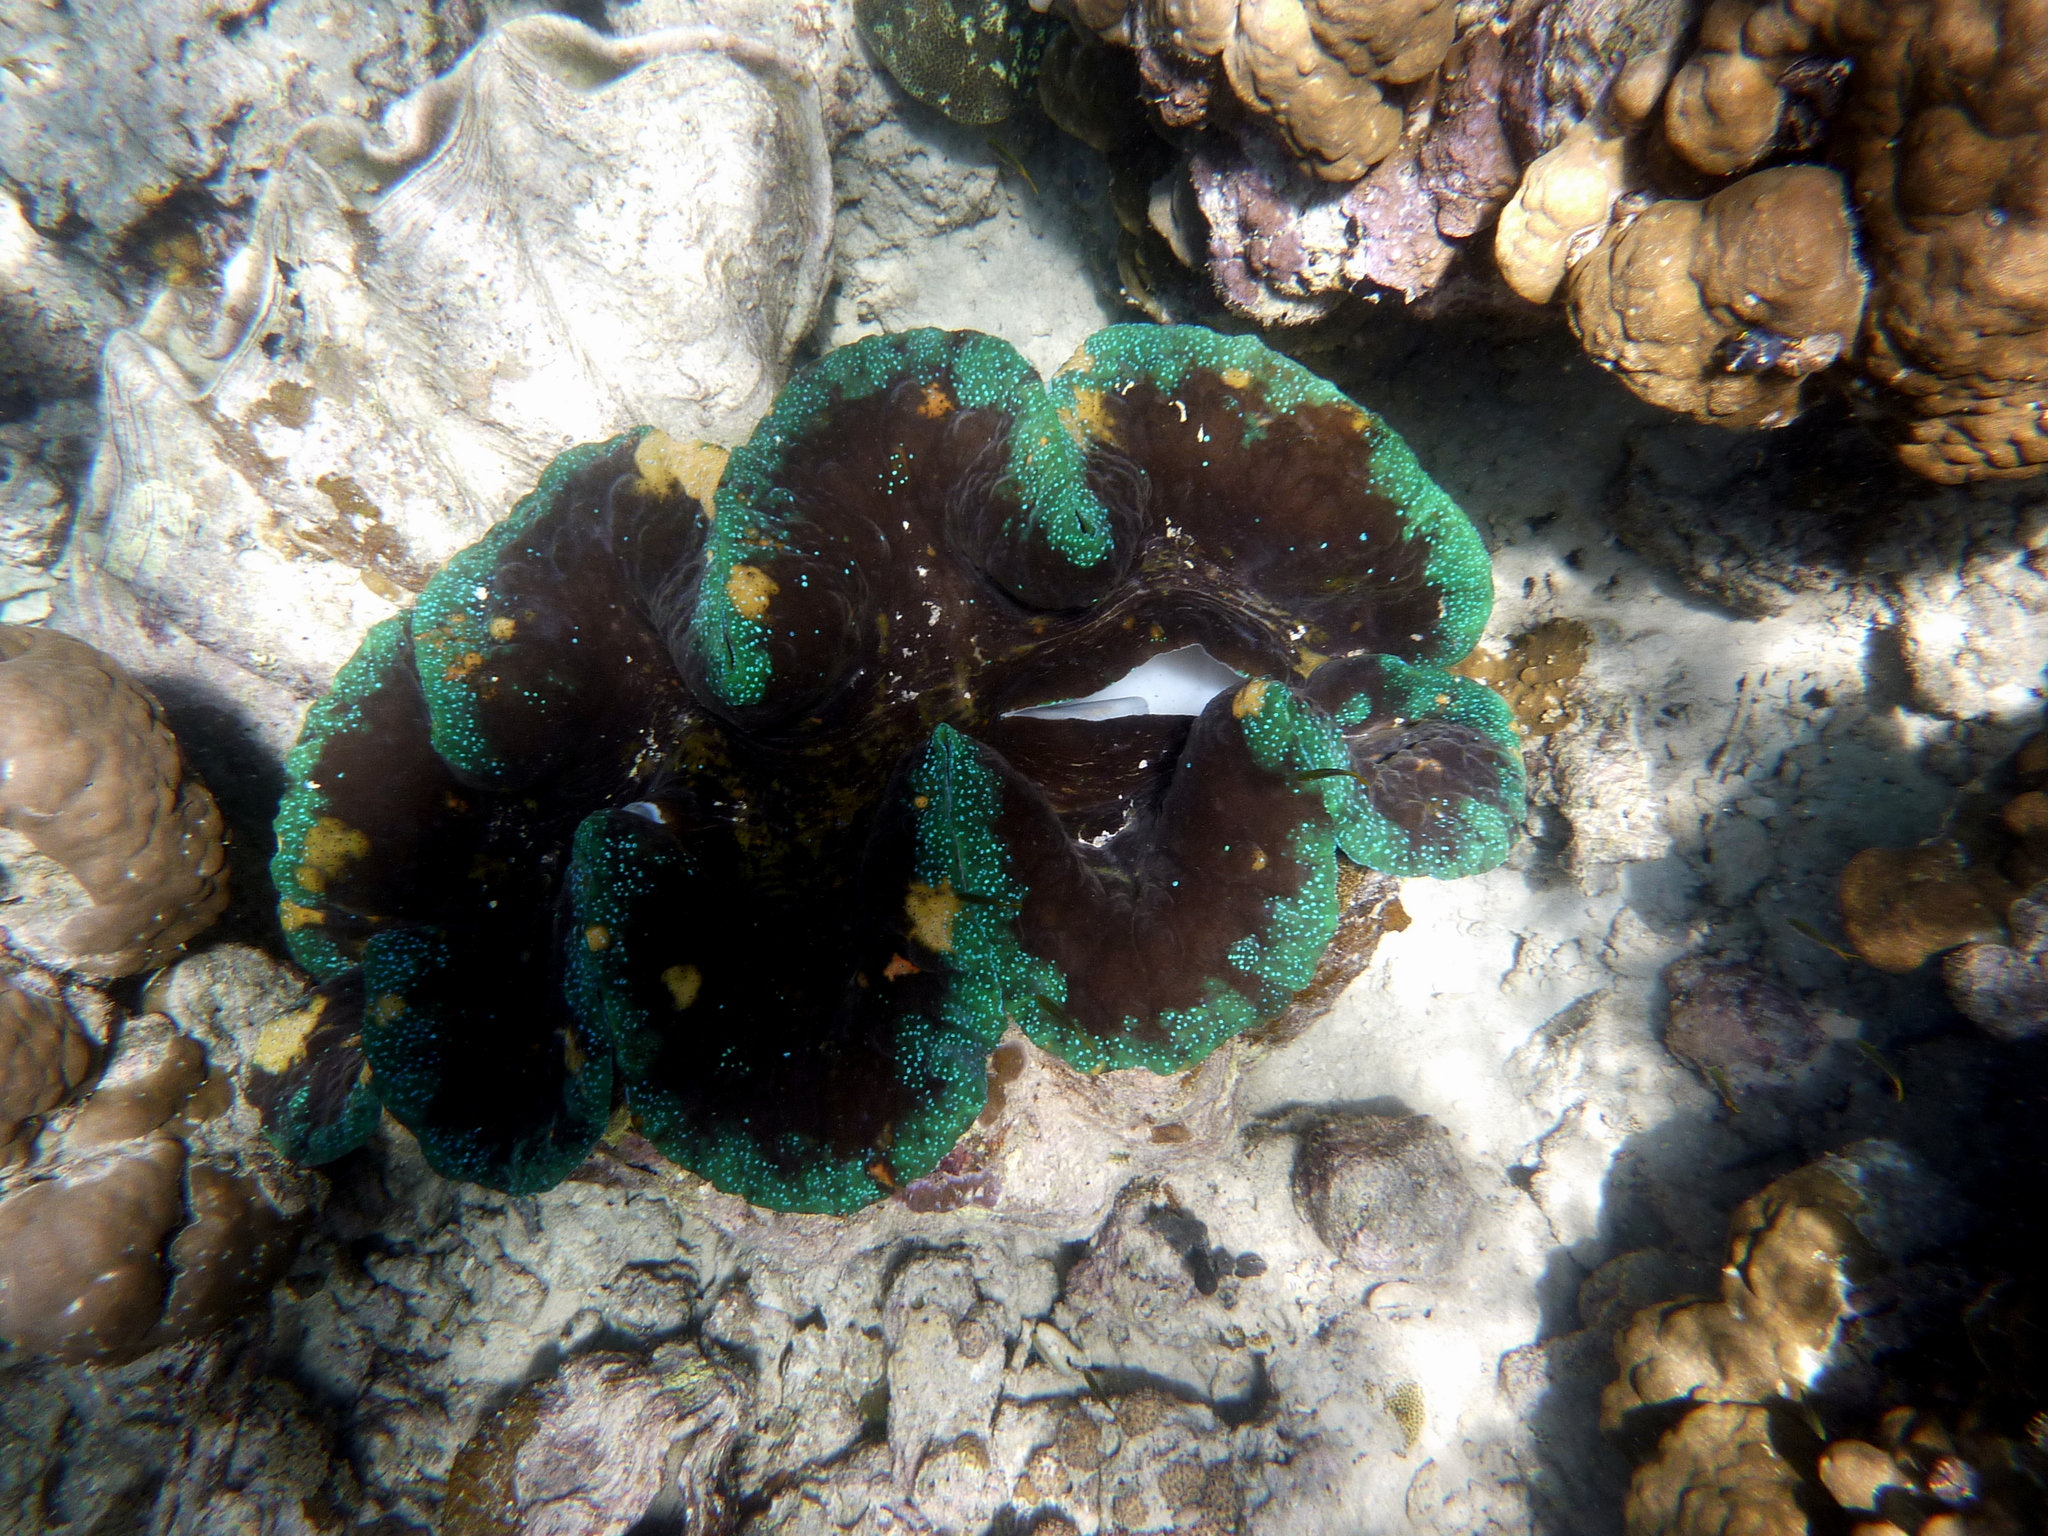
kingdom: Animalia
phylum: Mollusca
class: Bivalvia
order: Cardiida
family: Cardiidae
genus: Tridacna
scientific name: Tridacna gigas
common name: Giant clam
